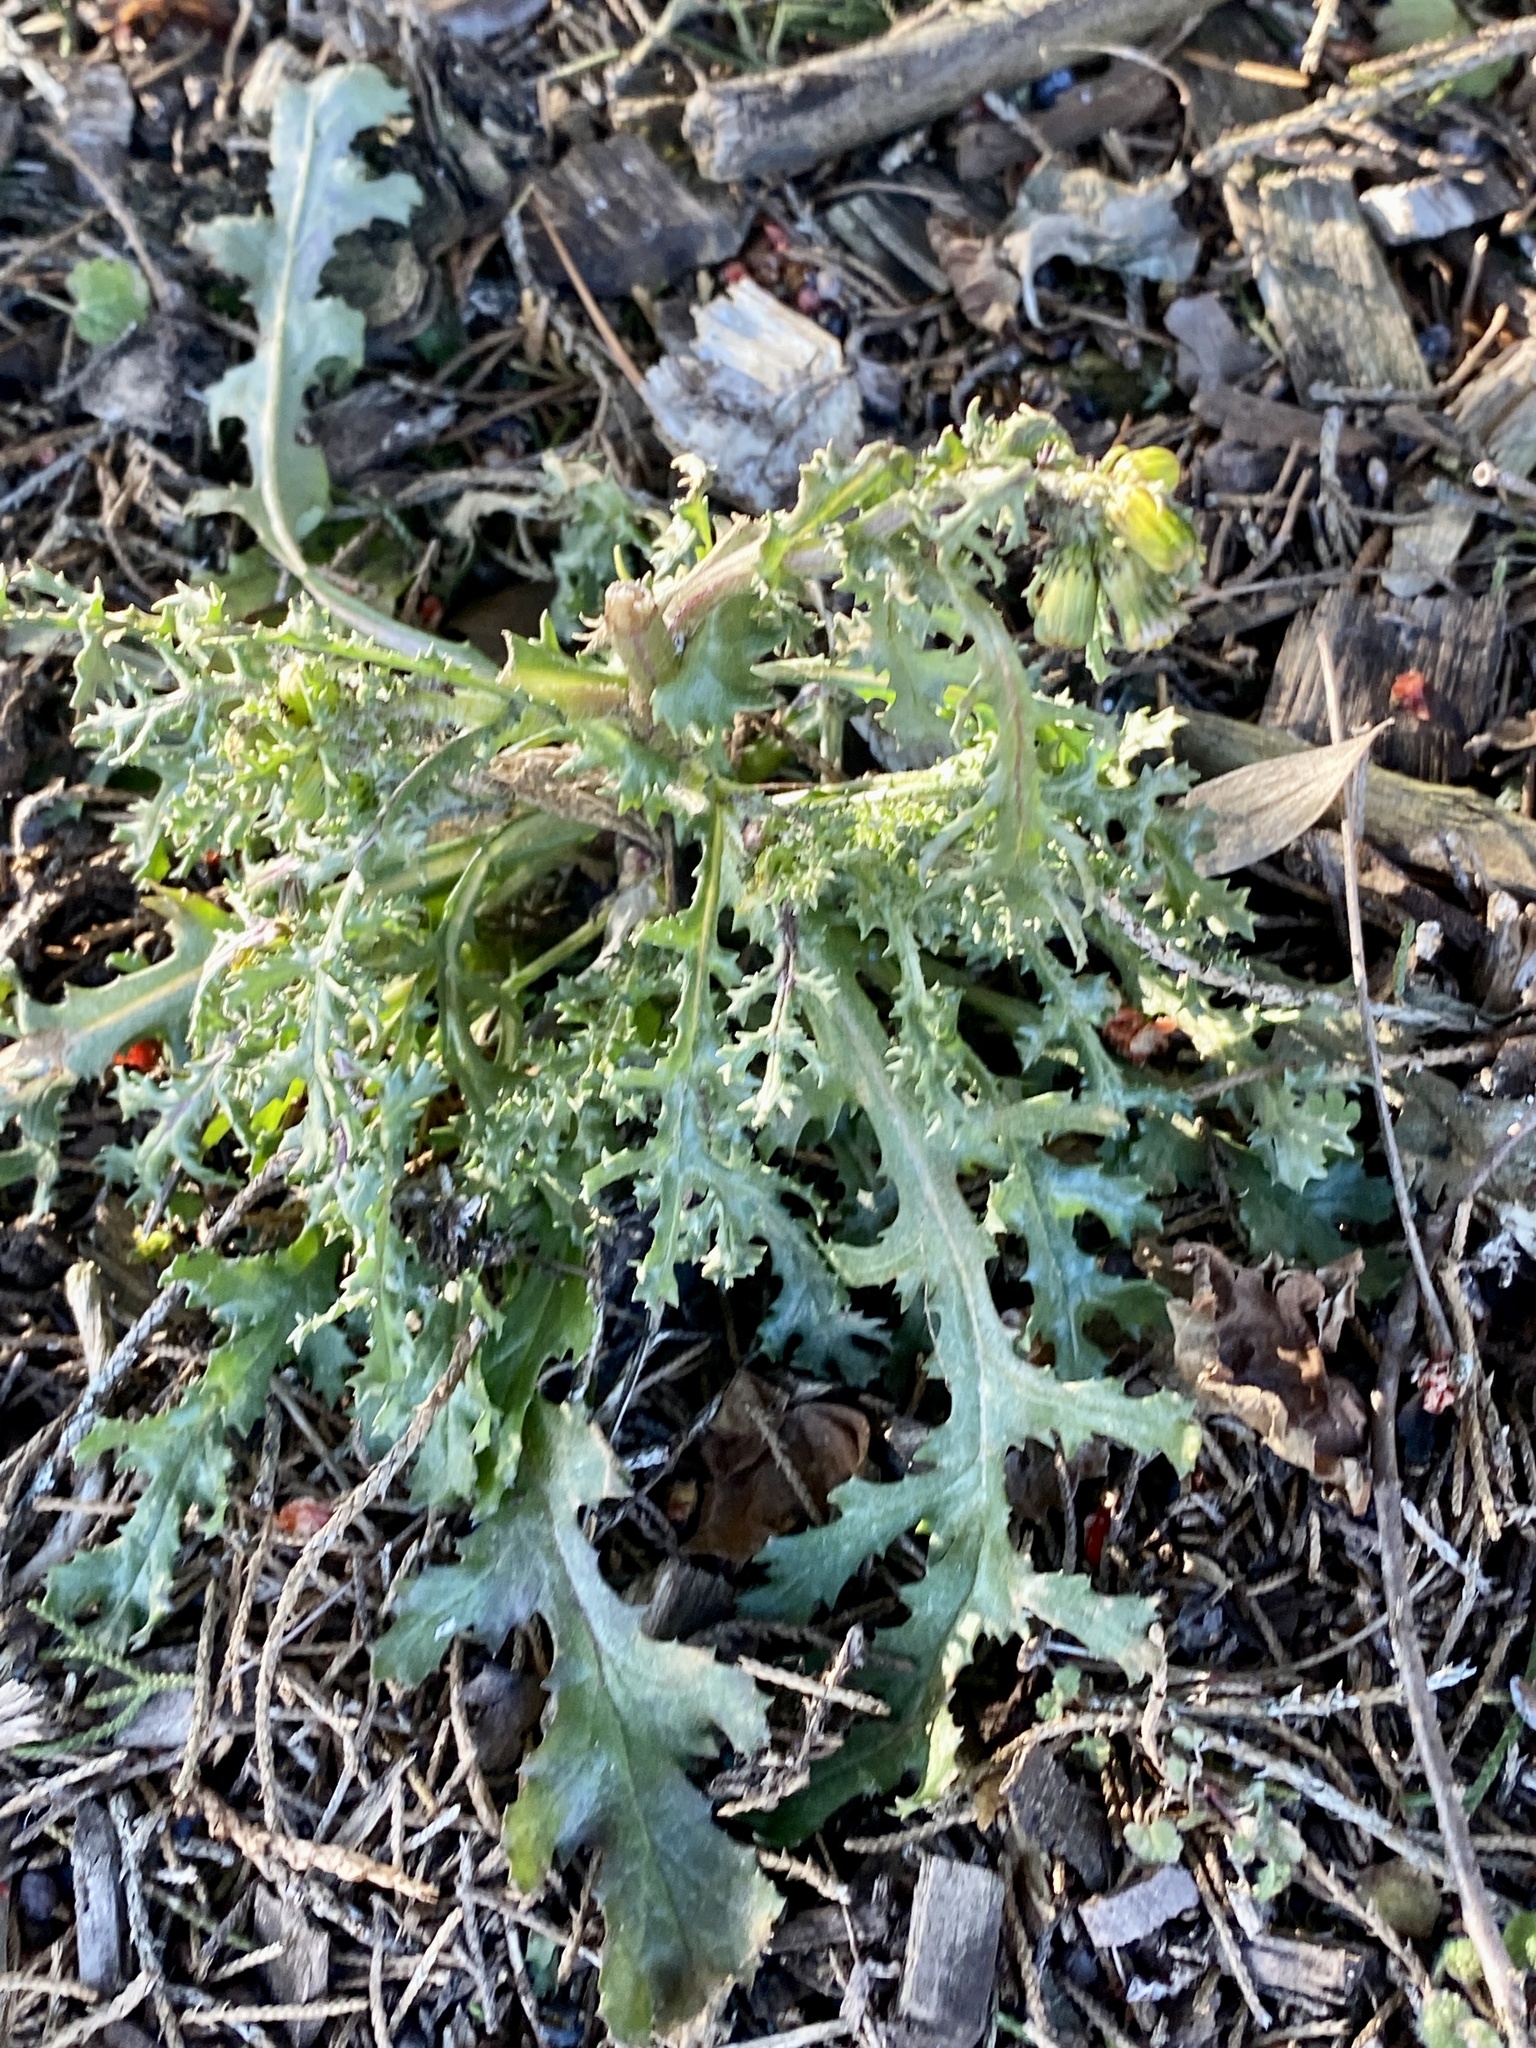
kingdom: Plantae
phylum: Tracheophyta
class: Magnoliopsida
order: Asterales
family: Asteraceae
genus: Senecio
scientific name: Senecio vulgaris
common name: Old-man-in-the-spring
